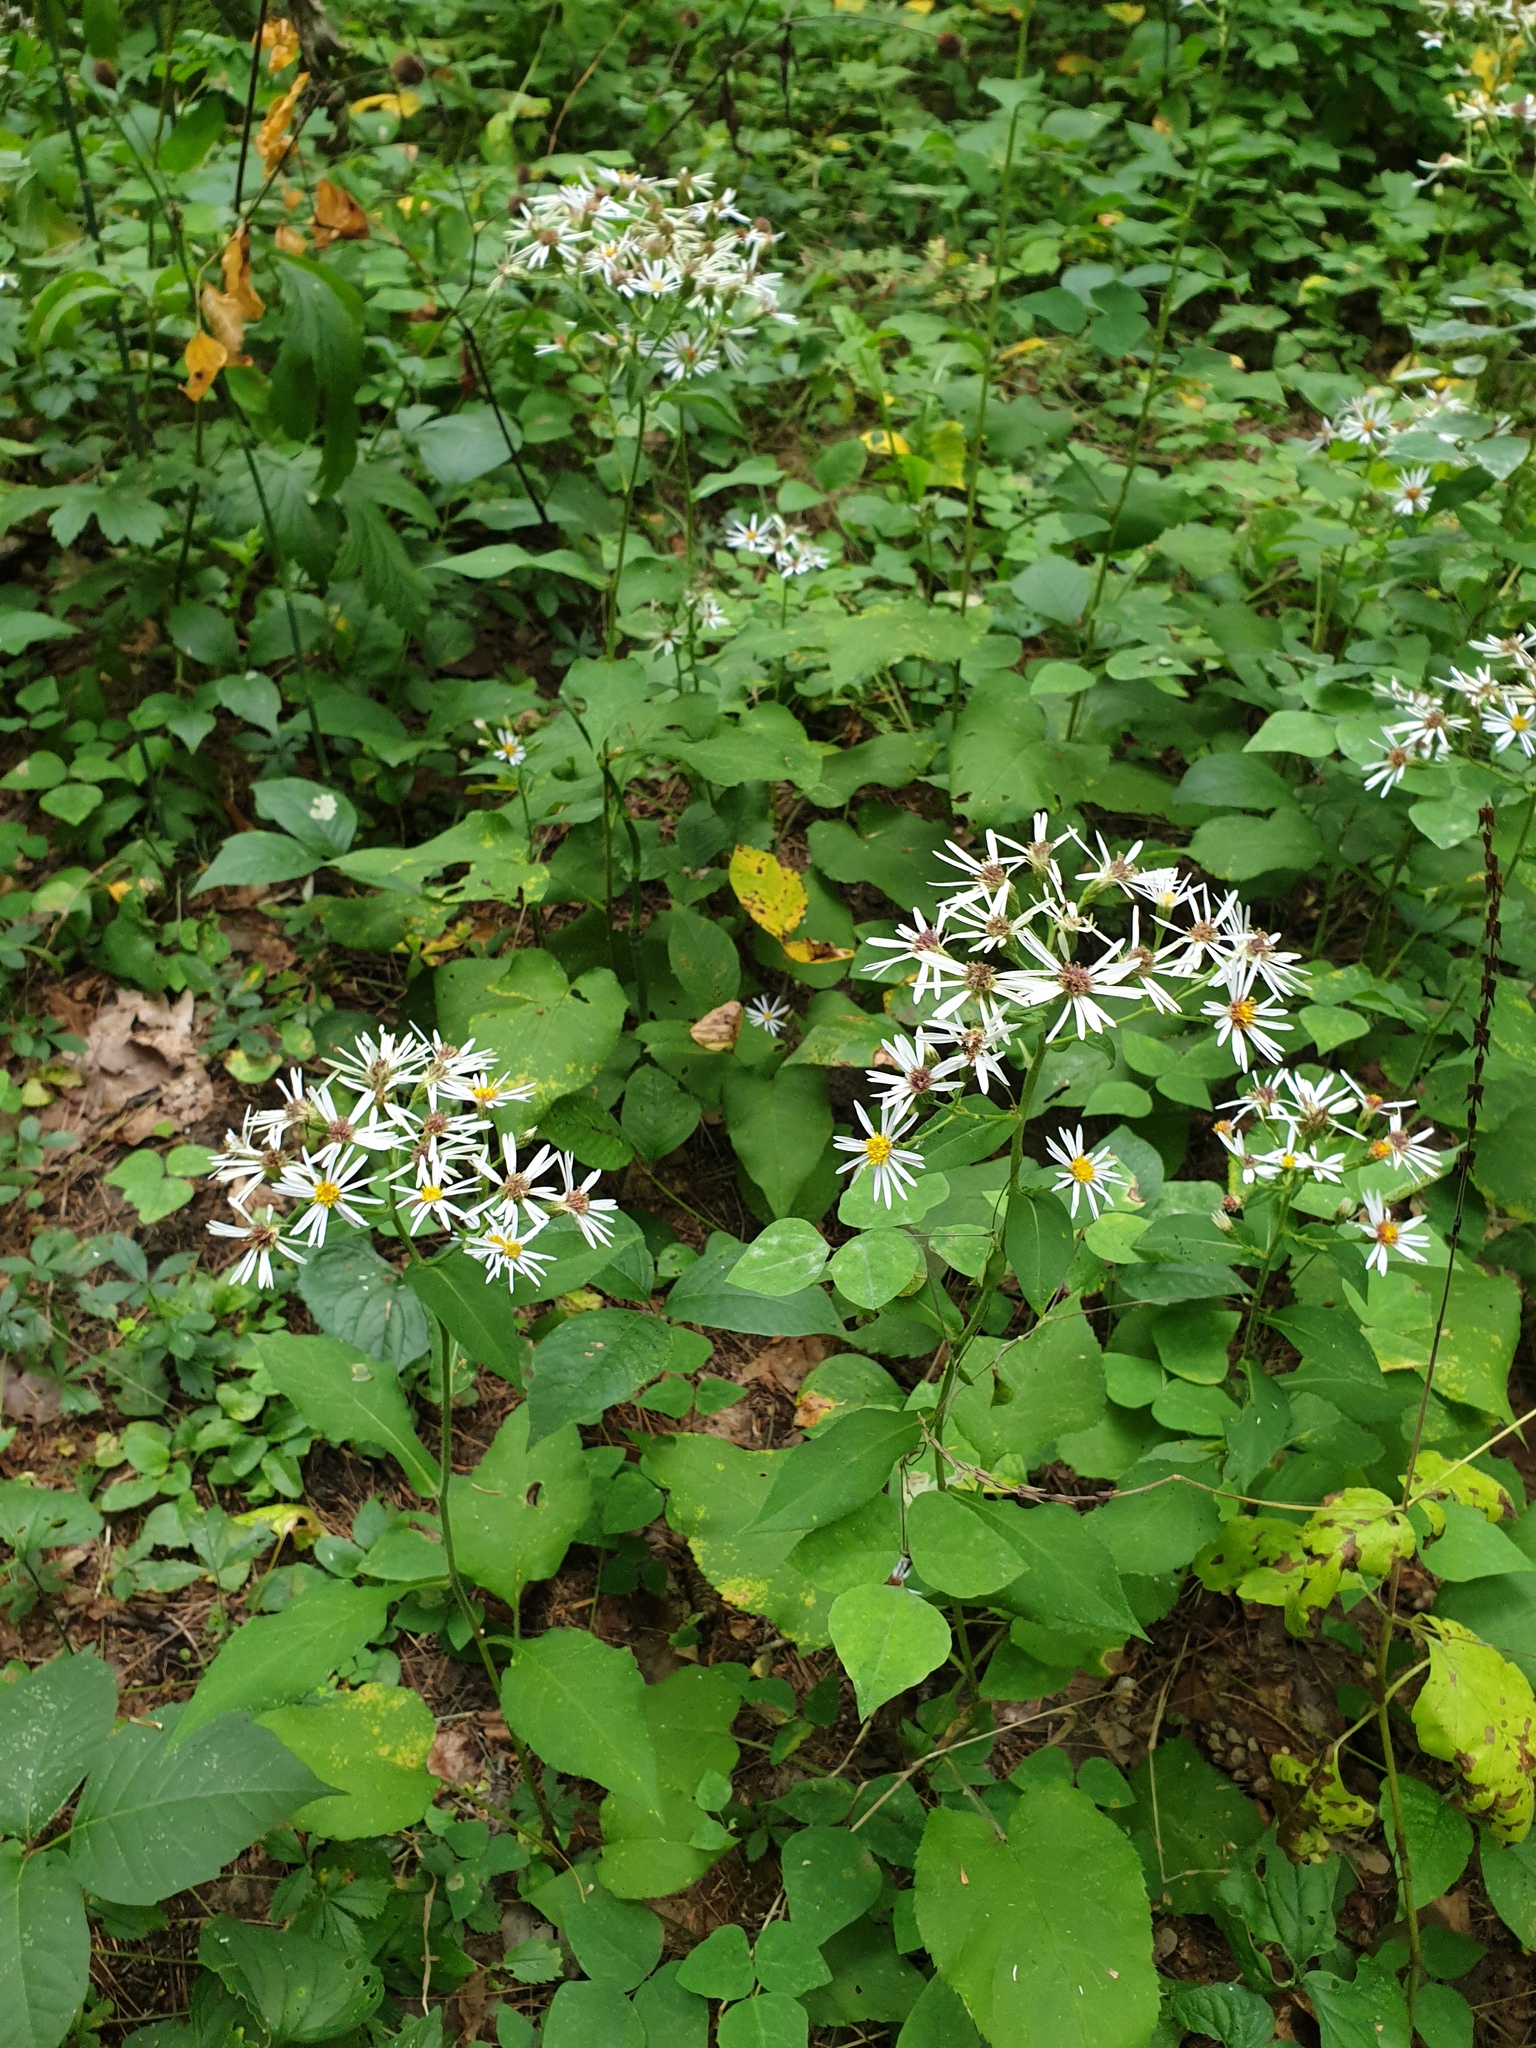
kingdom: Plantae
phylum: Tracheophyta
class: Magnoliopsida
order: Asterales
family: Asteraceae
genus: Eurybia
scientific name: Eurybia macrophylla
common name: Big-leaved aster
